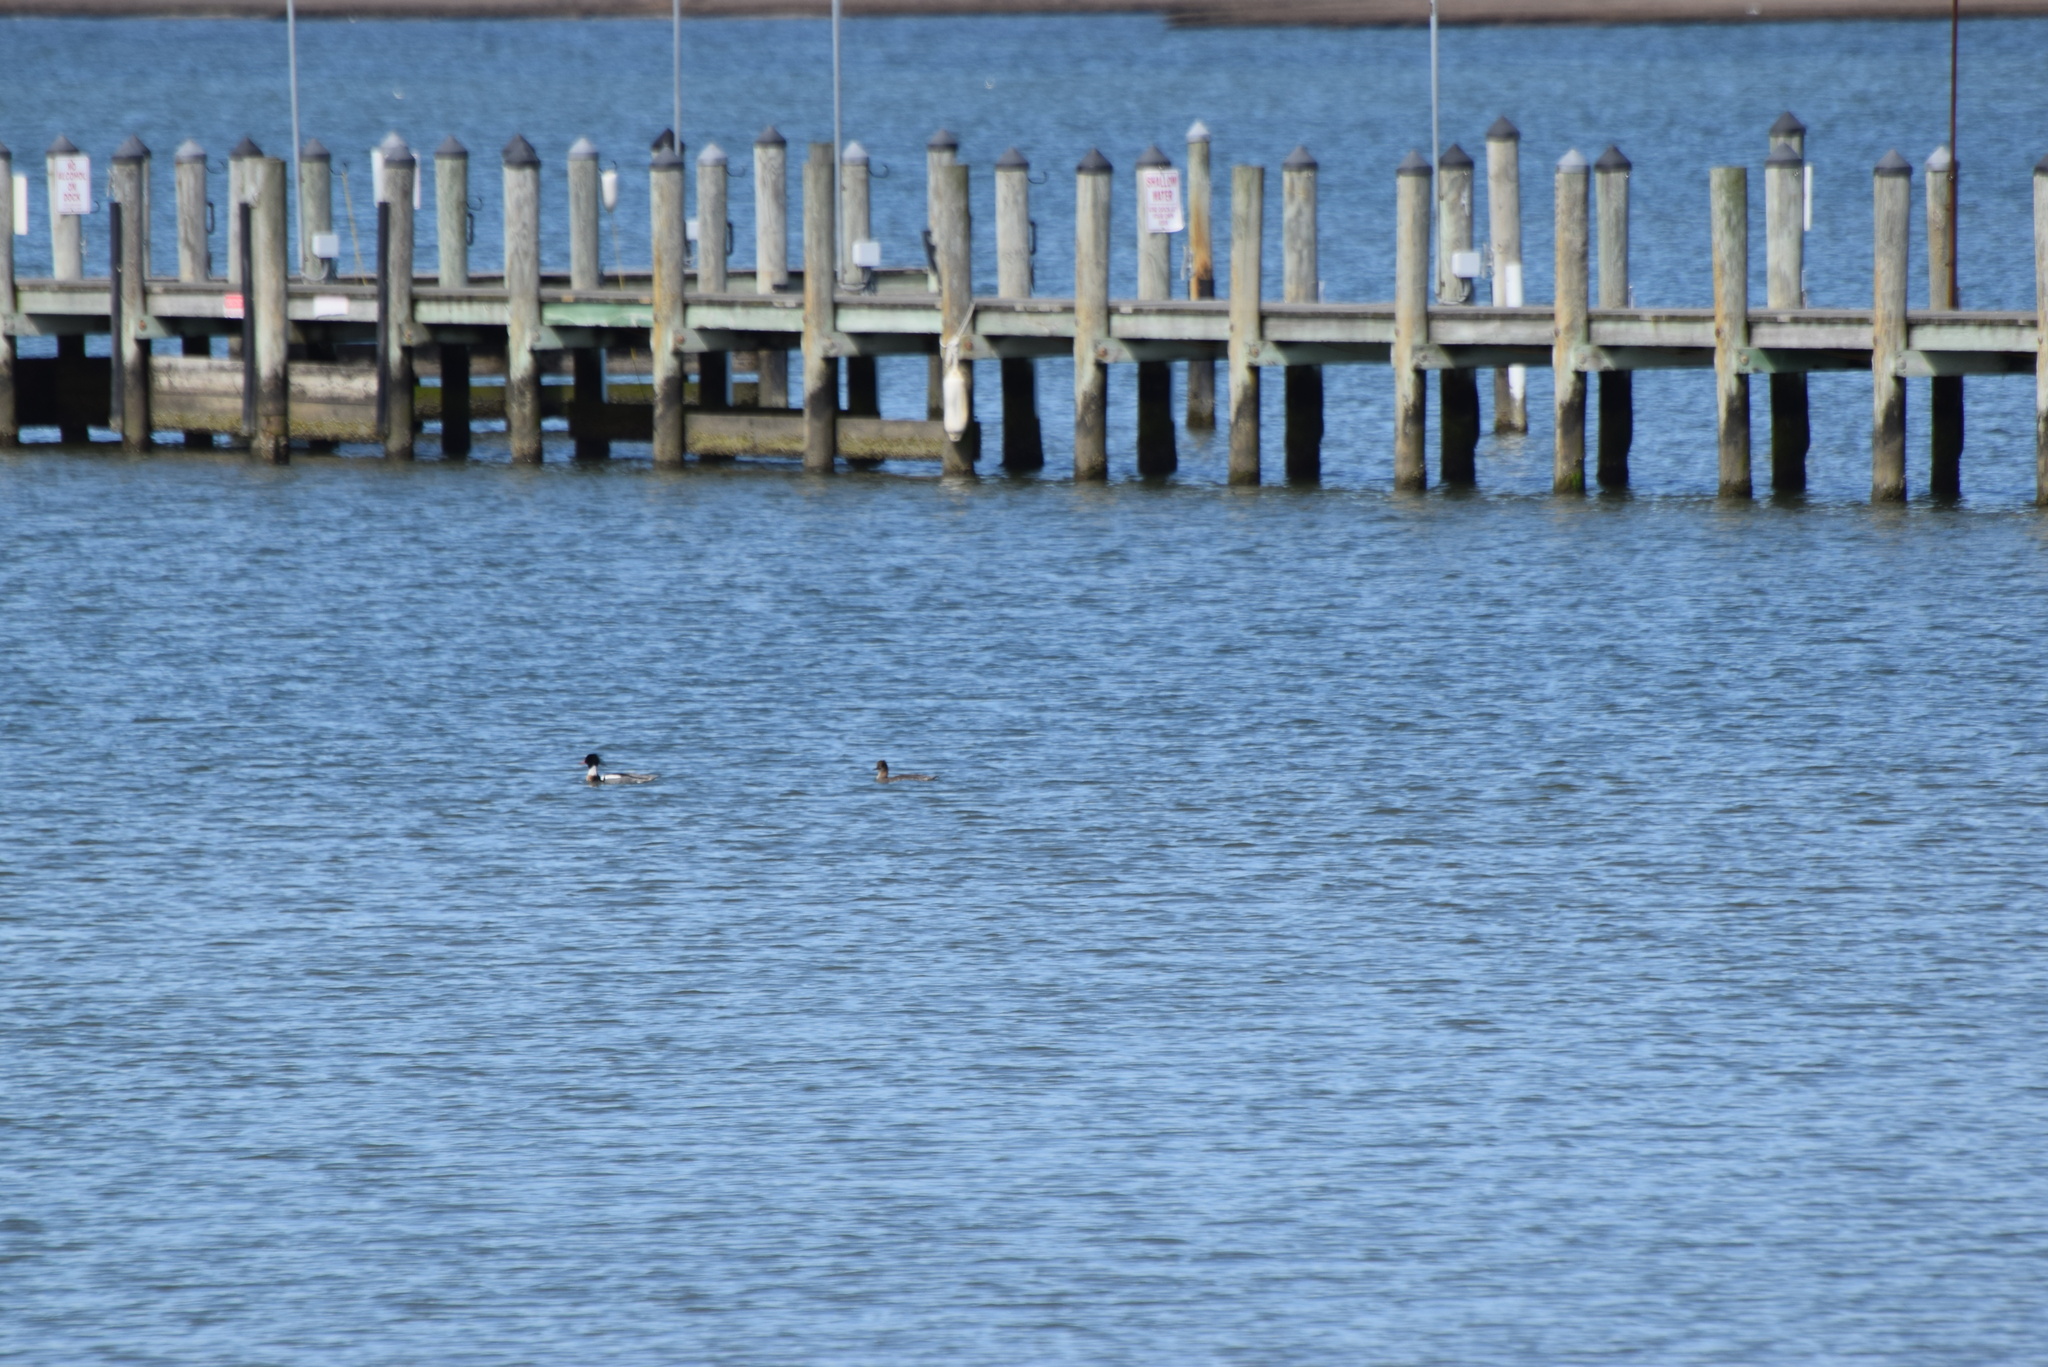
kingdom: Animalia
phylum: Chordata
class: Aves
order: Anseriformes
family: Anatidae
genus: Mergus
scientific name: Mergus serrator
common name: Red-breasted merganser
